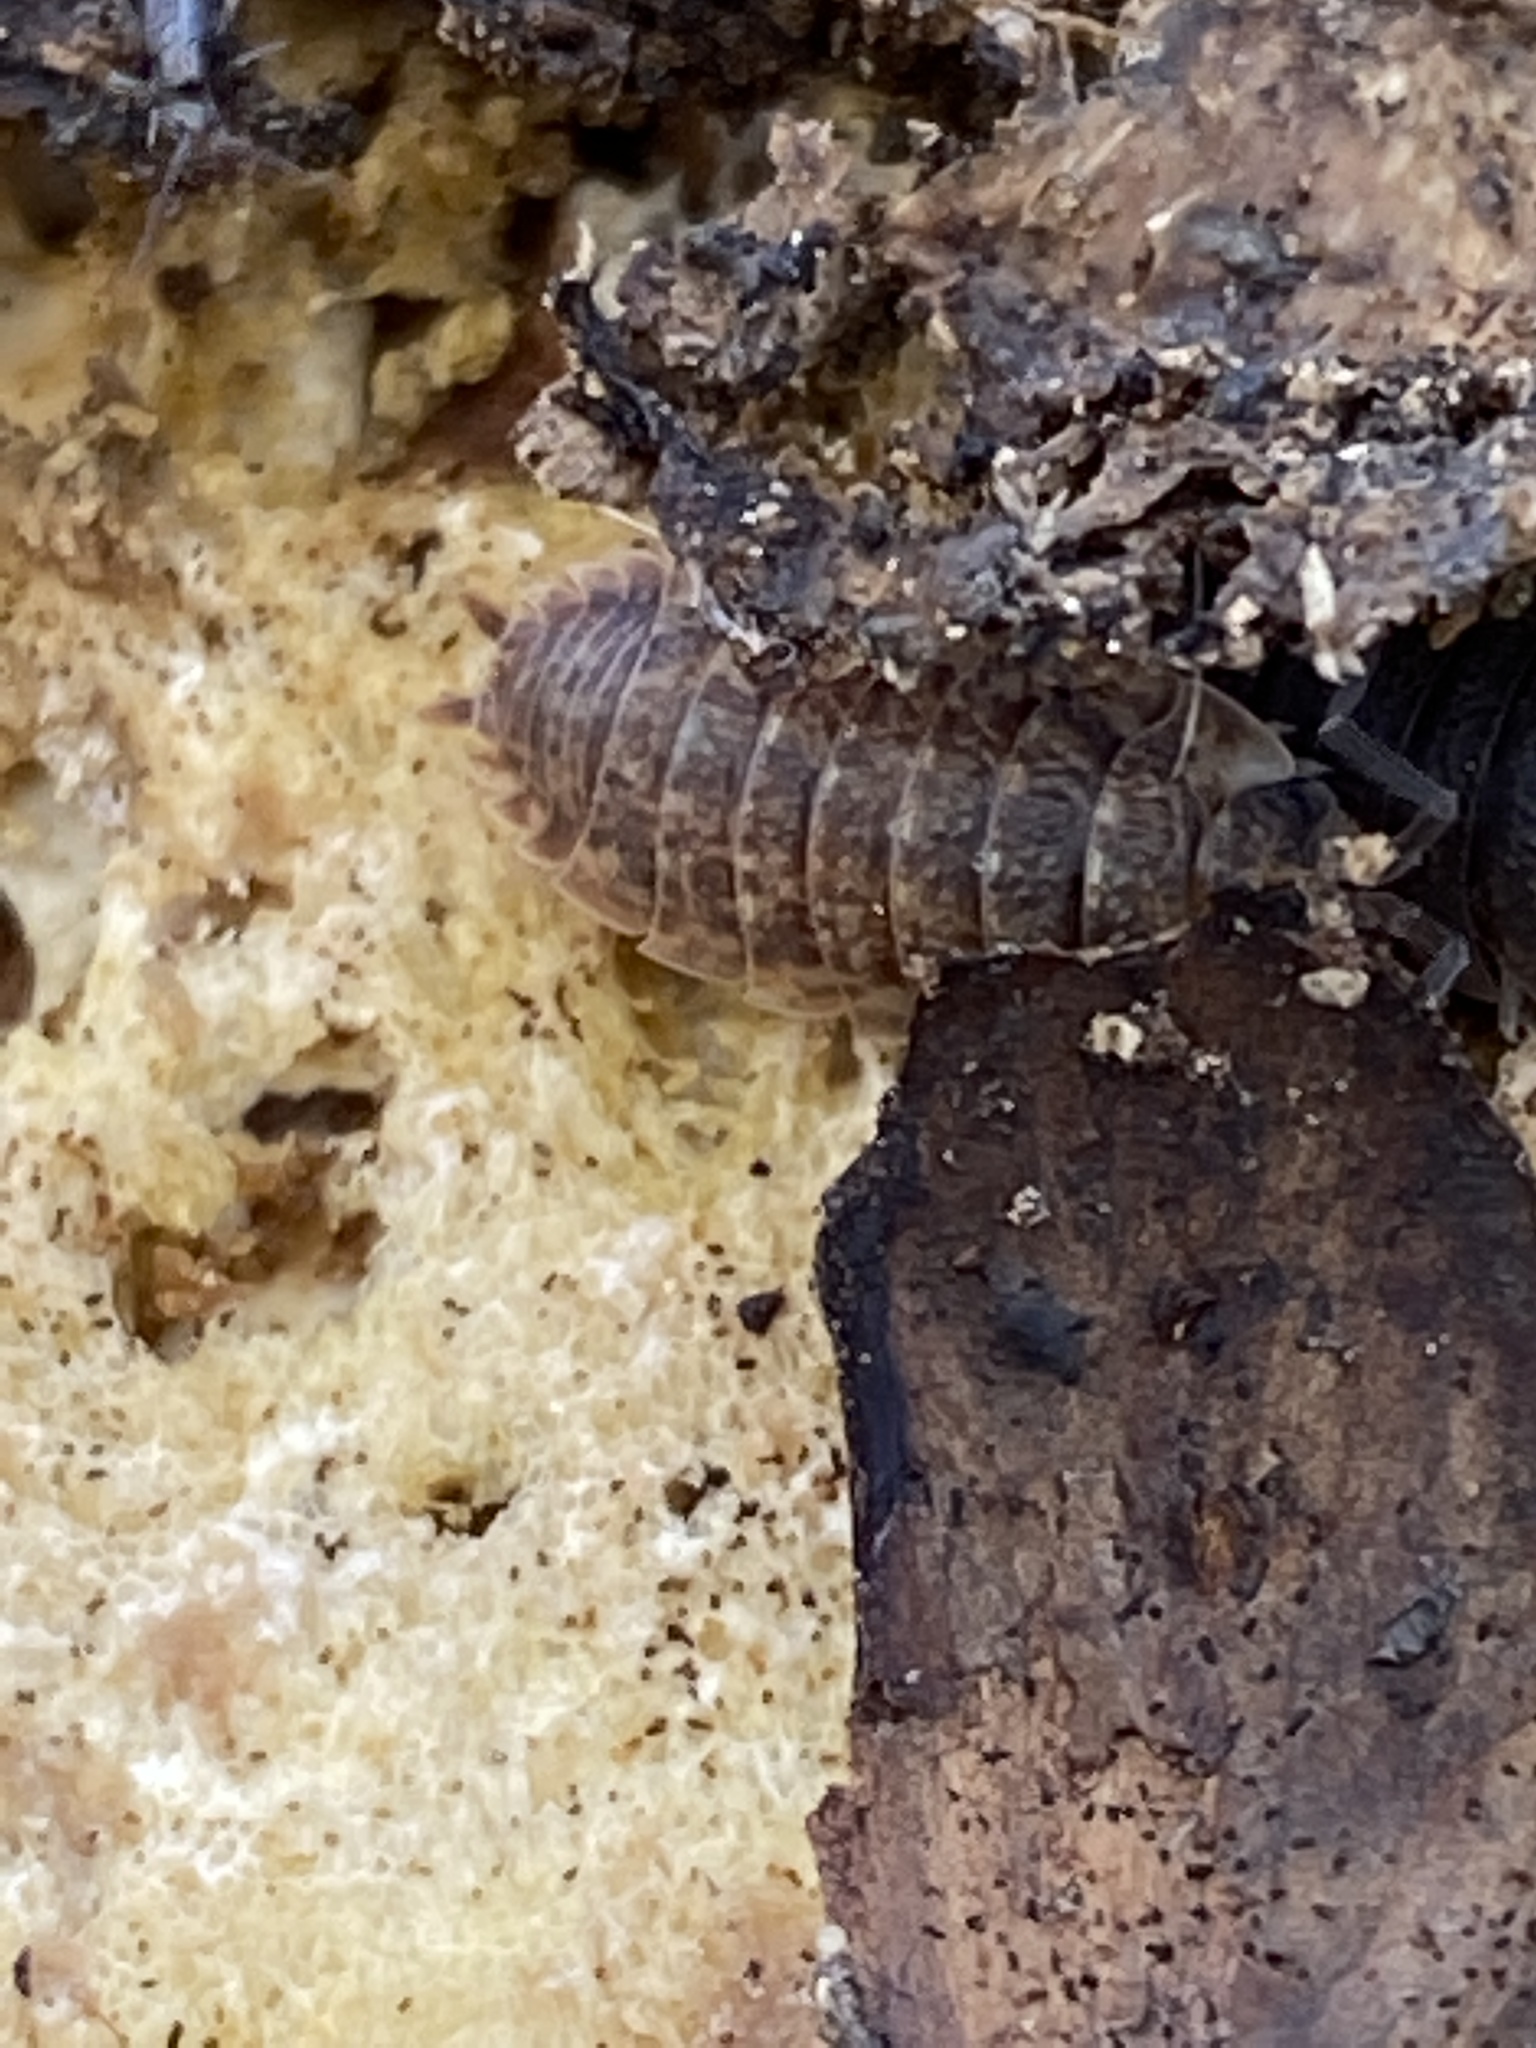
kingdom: Animalia
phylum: Arthropoda
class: Malacostraca
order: Isopoda
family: Porcellionidae
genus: Porcellio
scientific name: Porcellio scaber
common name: Common rough woodlouse
